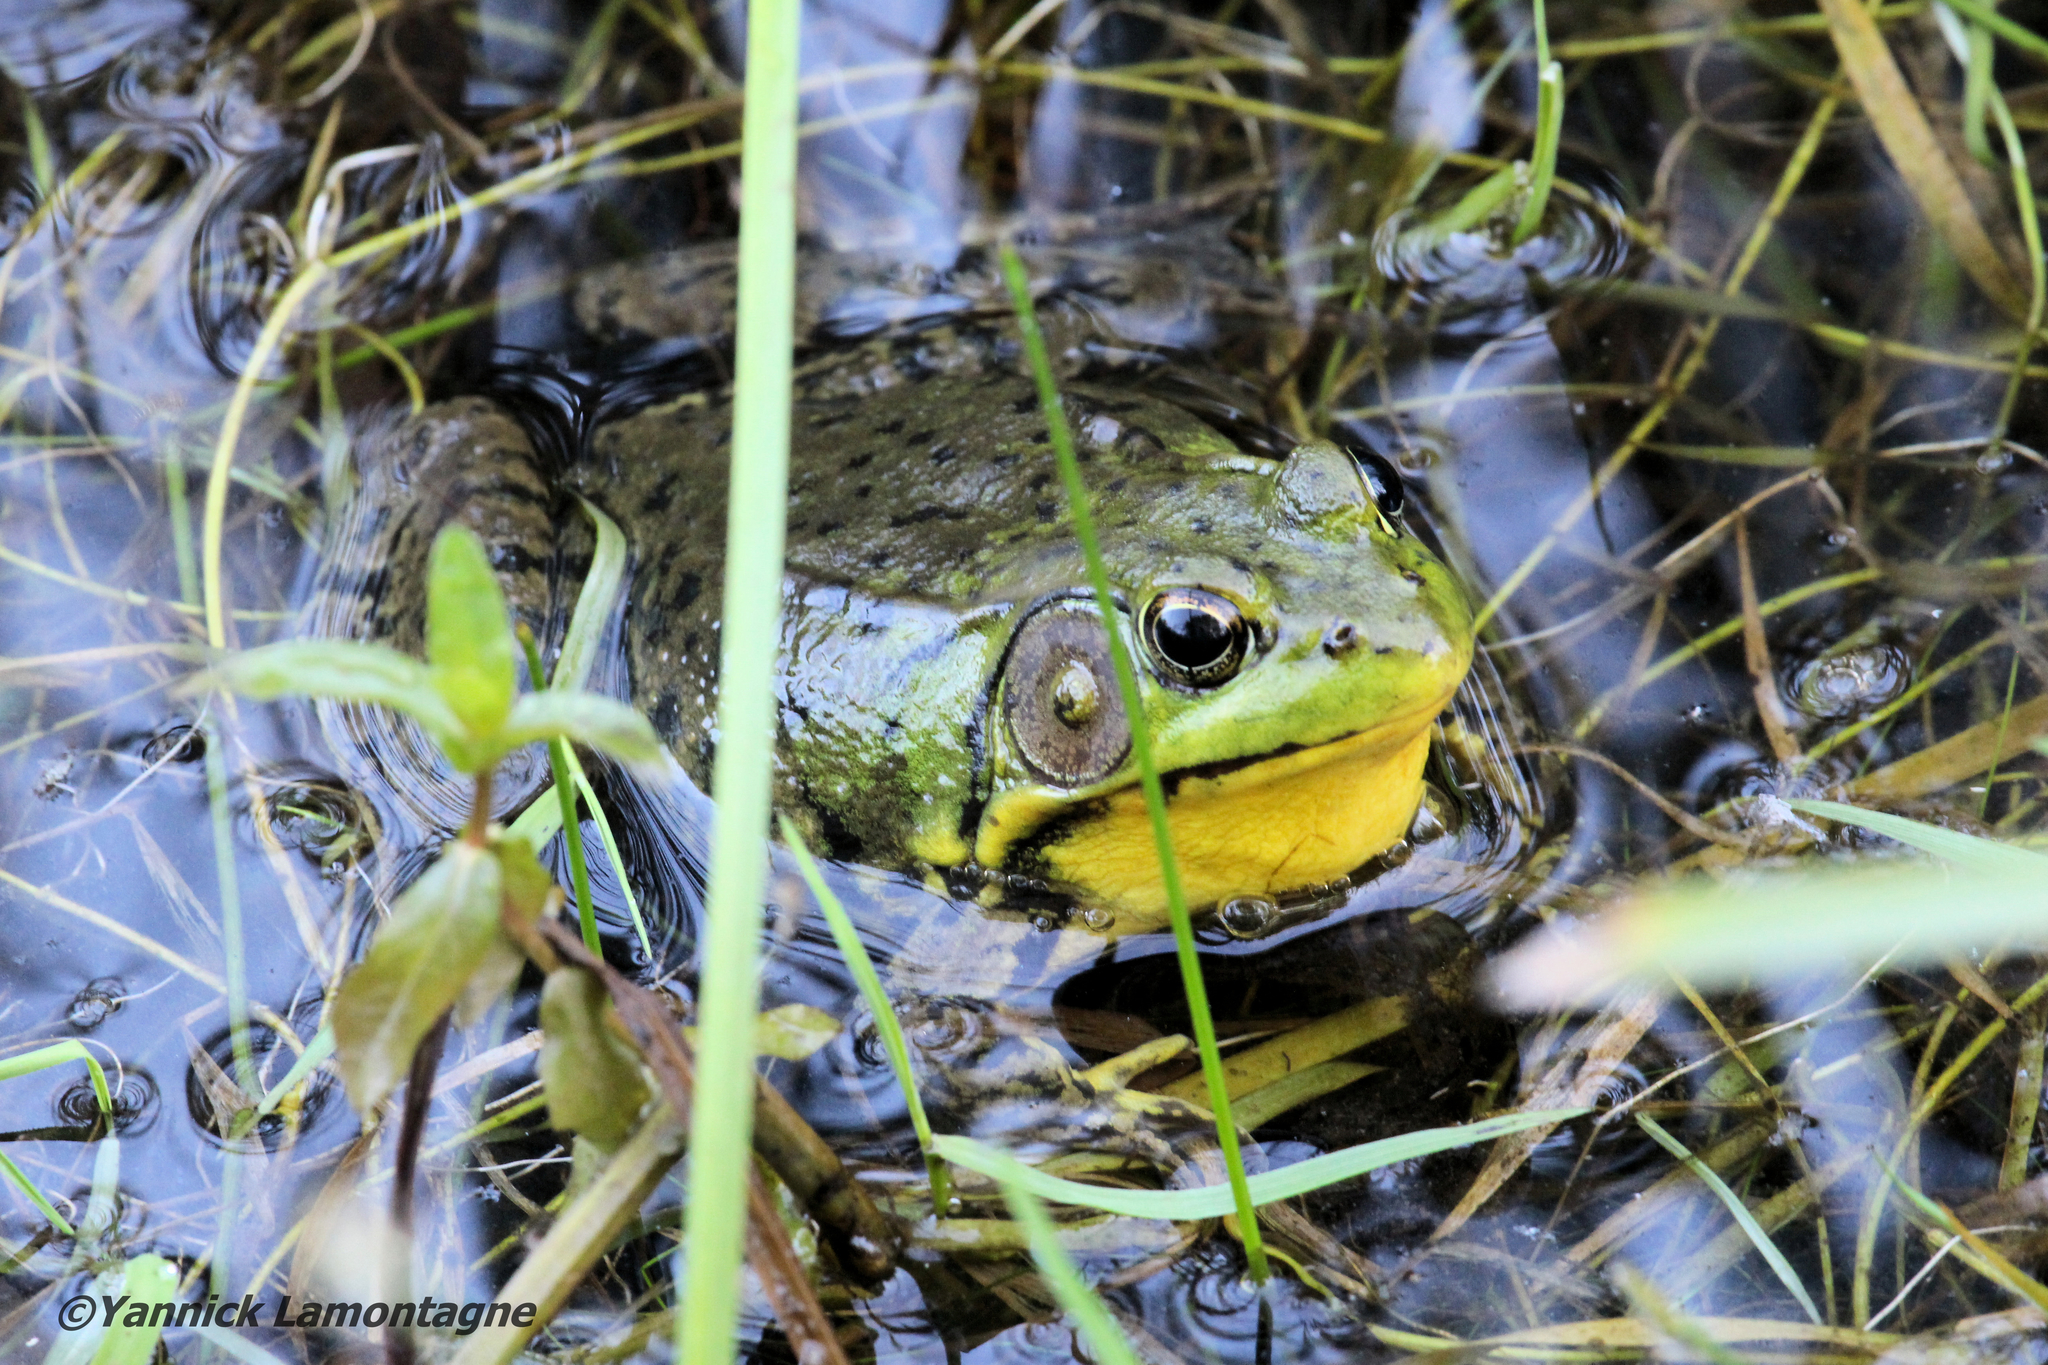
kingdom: Animalia
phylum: Chordata
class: Amphibia
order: Anura
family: Ranidae
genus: Lithobates
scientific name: Lithobates clamitans
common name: Green frog
